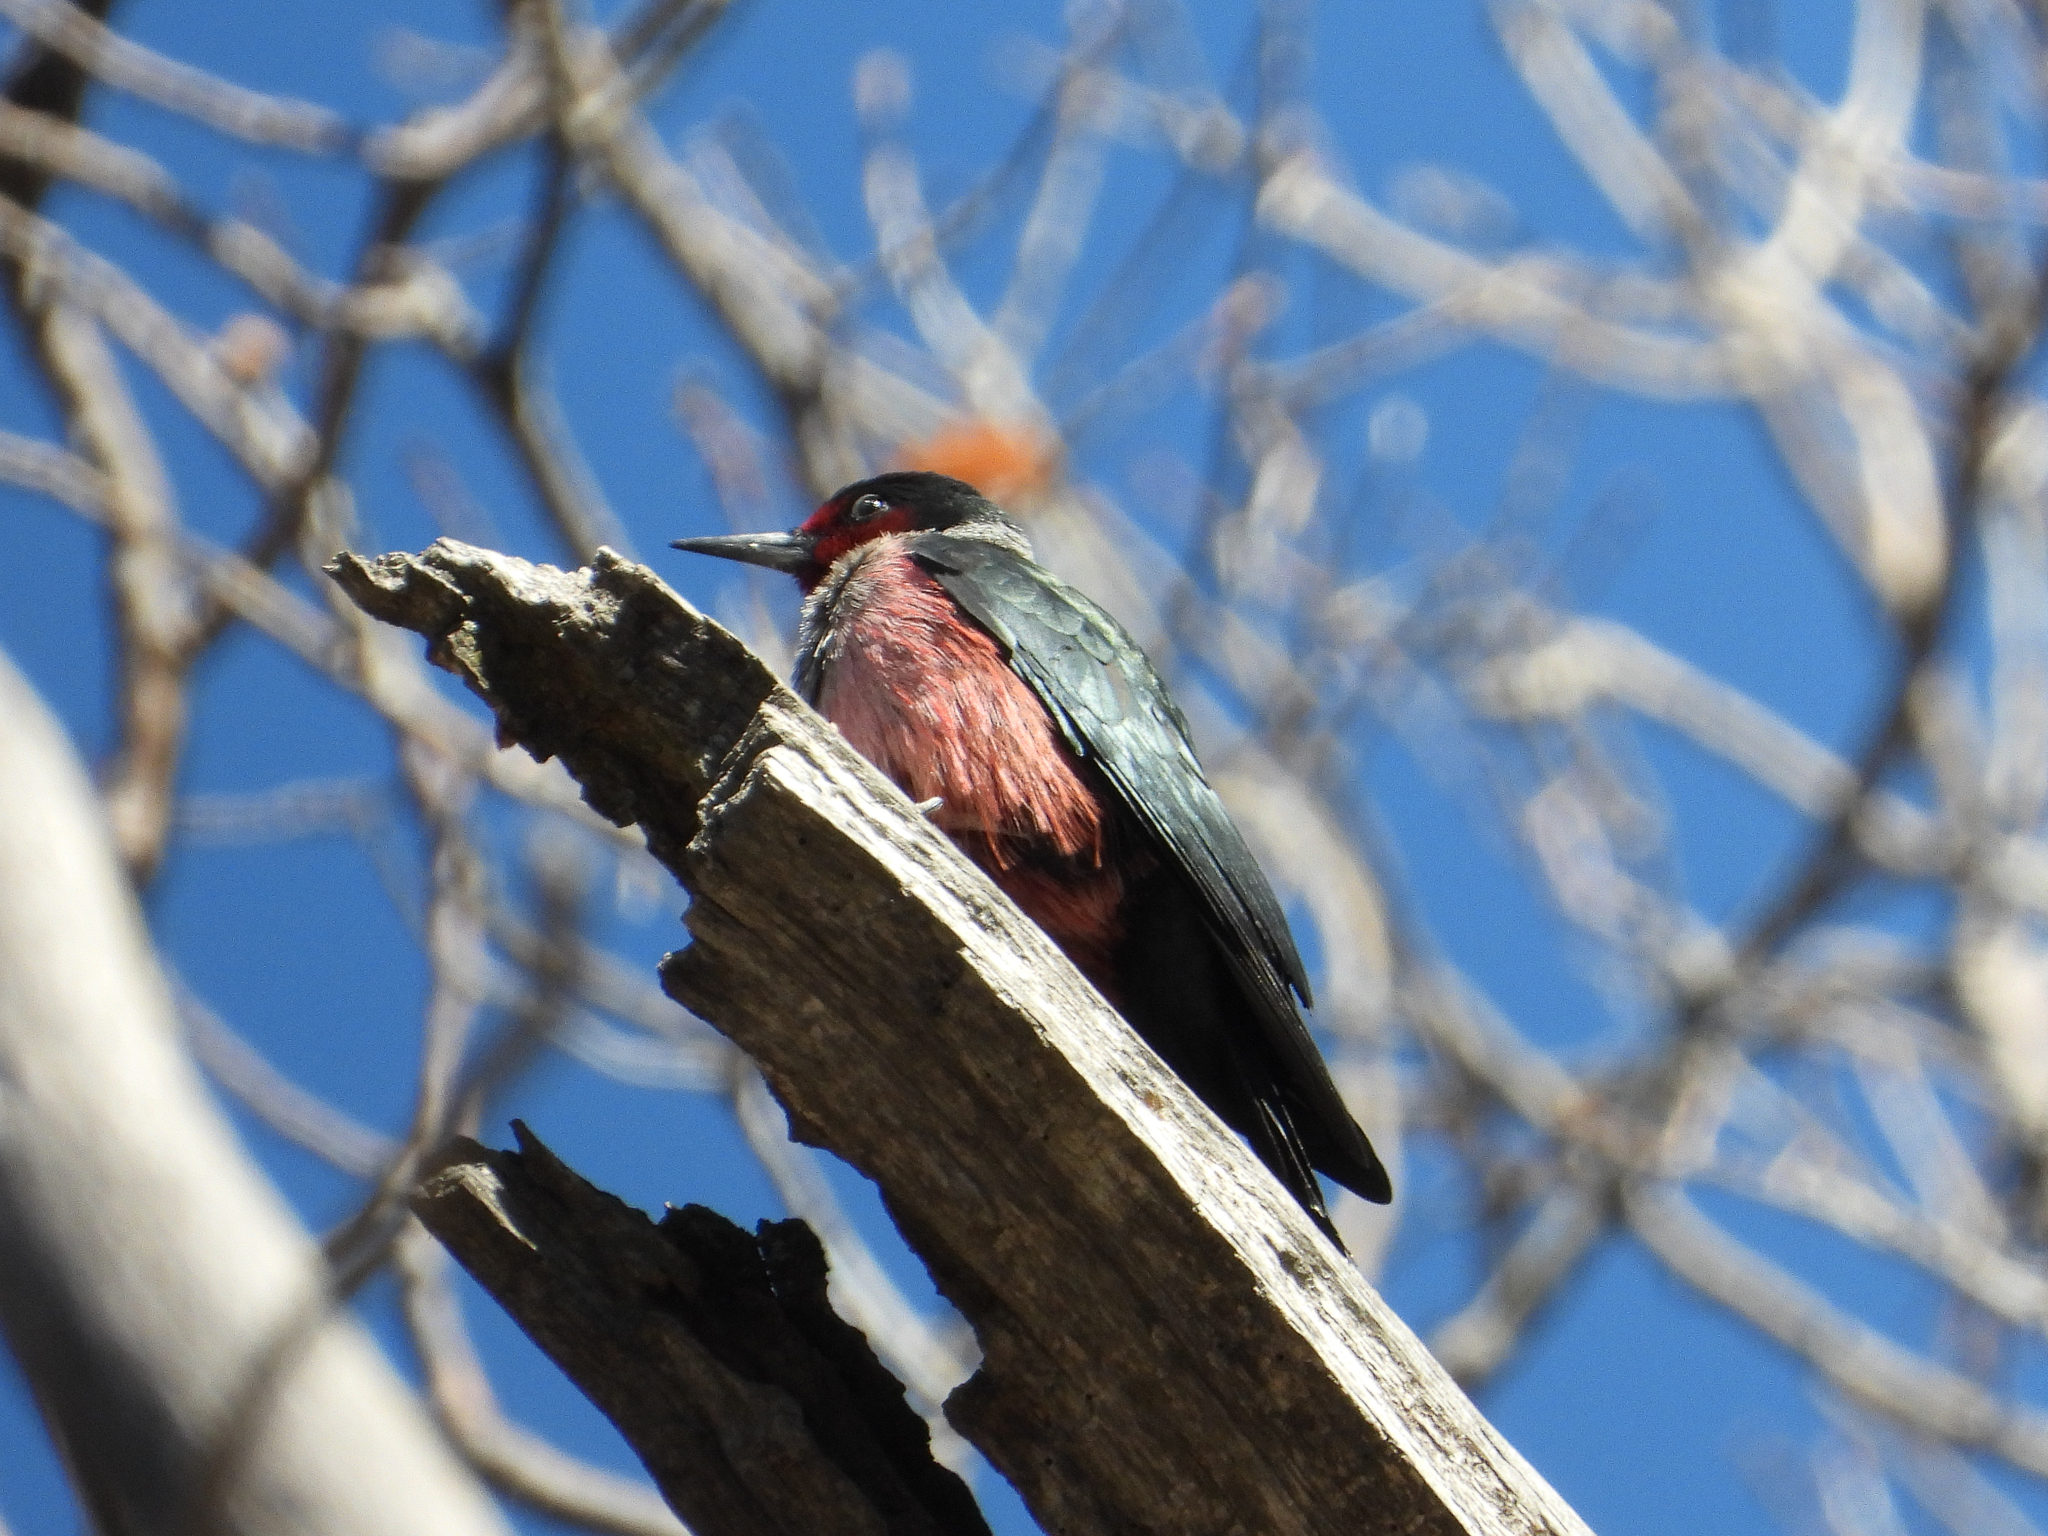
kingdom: Animalia
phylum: Chordata
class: Aves
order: Piciformes
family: Picidae
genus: Melanerpes
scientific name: Melanerpes lewis
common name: Lewis's woodpecker
